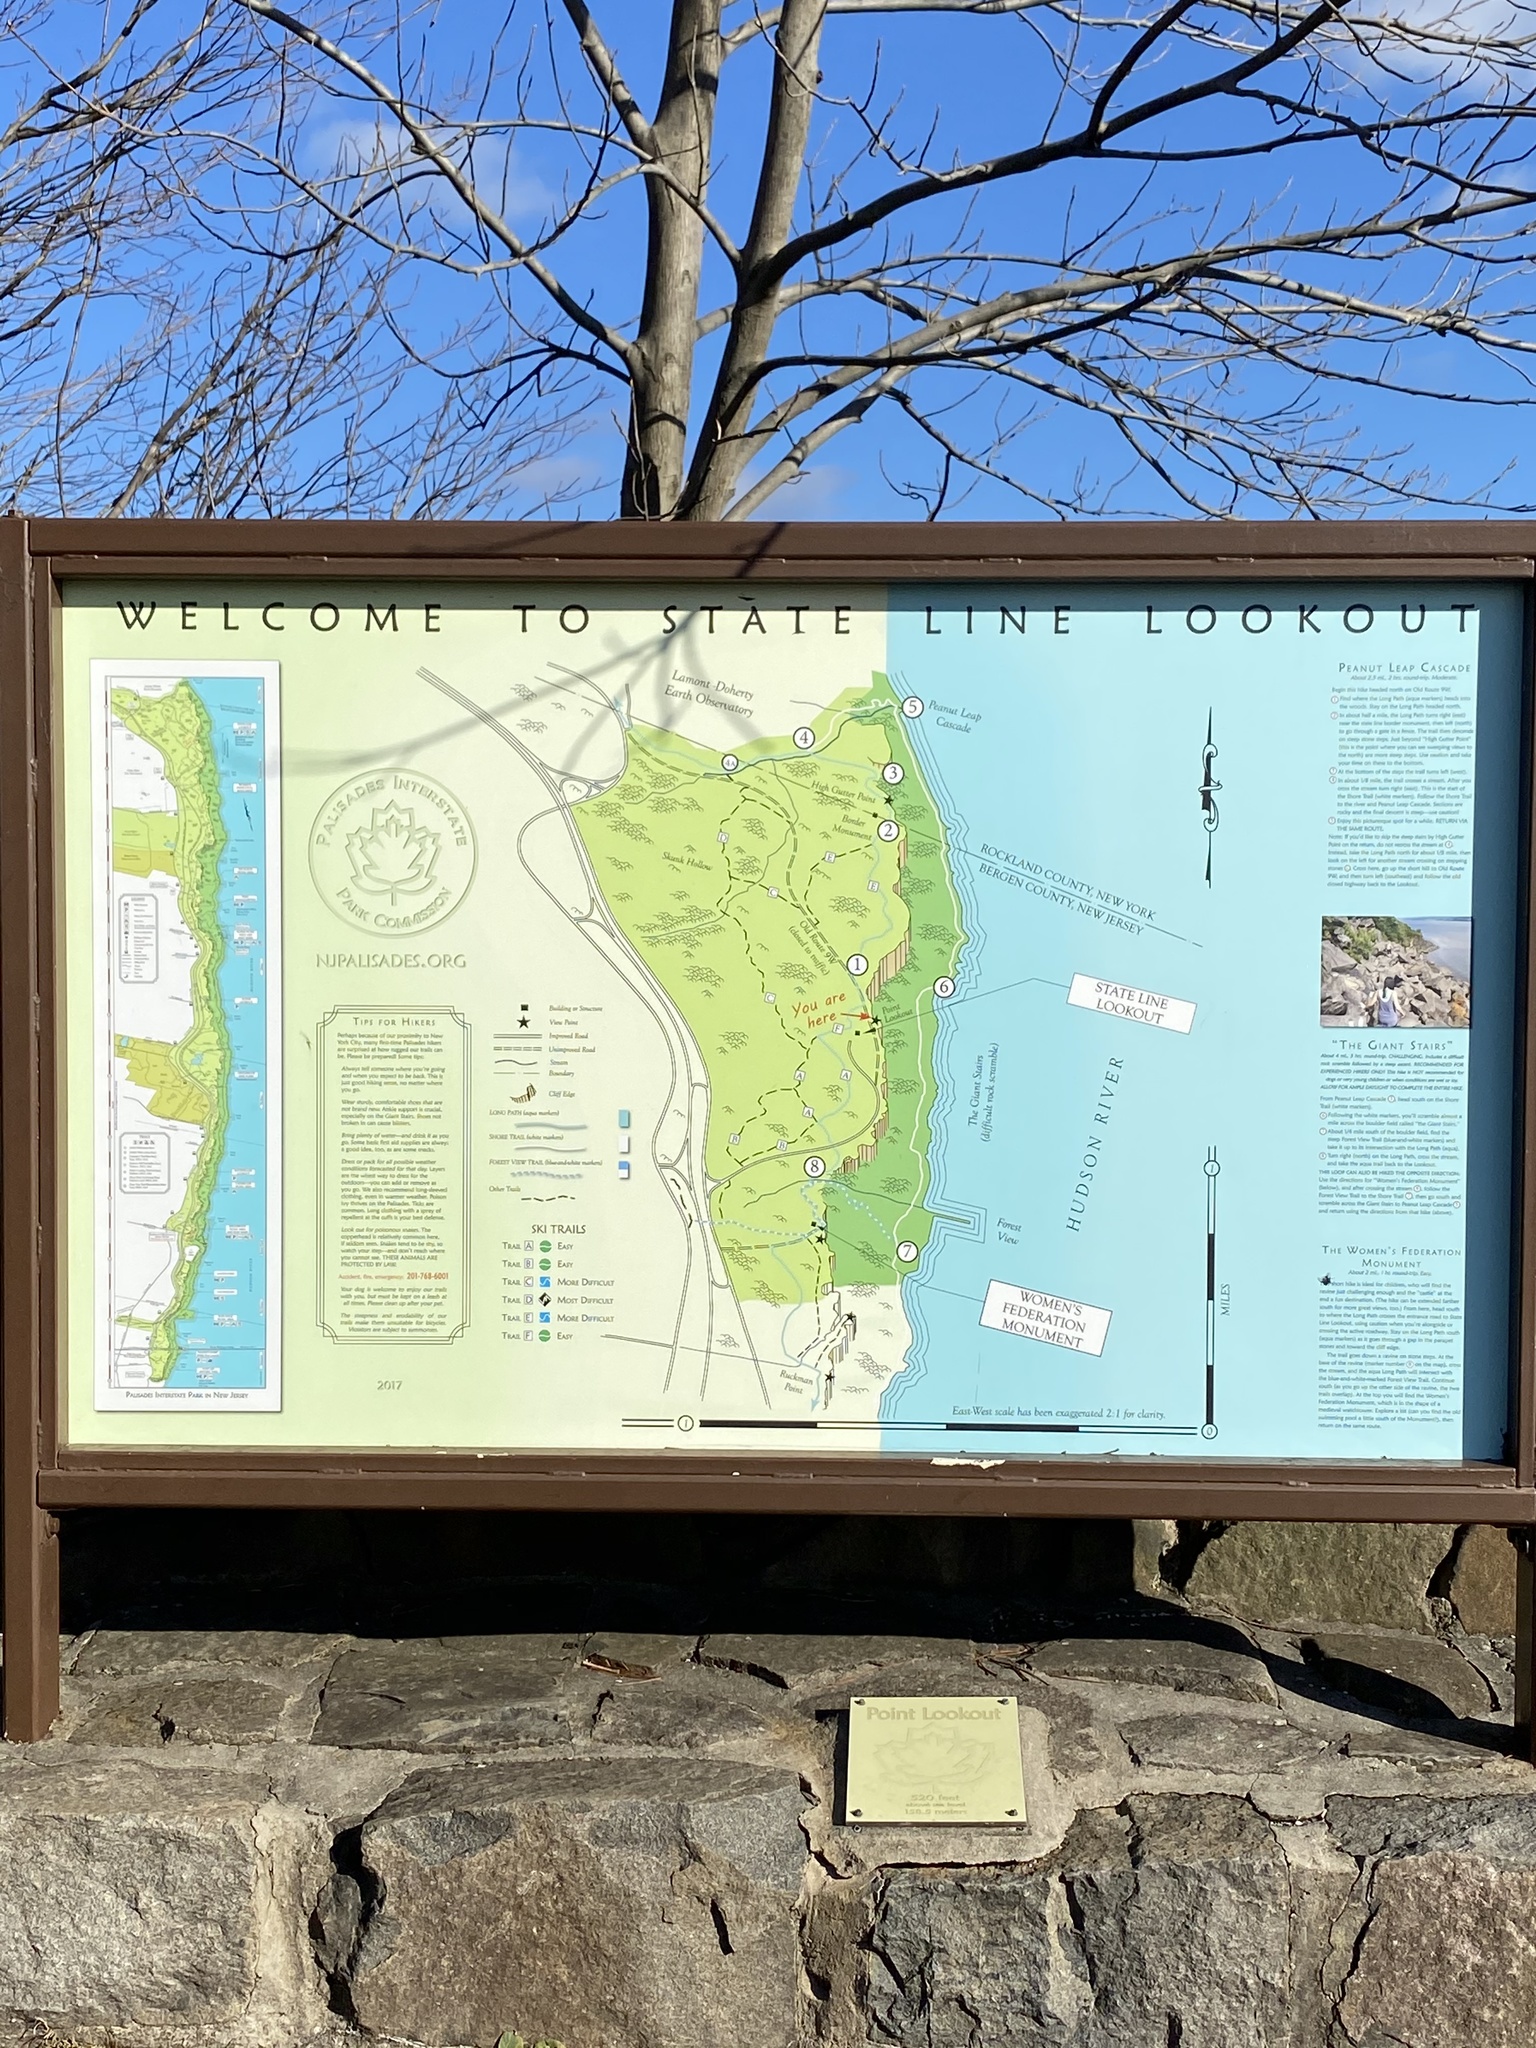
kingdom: Plantae
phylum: Tracheophyta
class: Magnoliopsida
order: Lamiales
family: Lamiaceae
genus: Leonurus
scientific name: Leonurus cardiaca
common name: Motherwort
